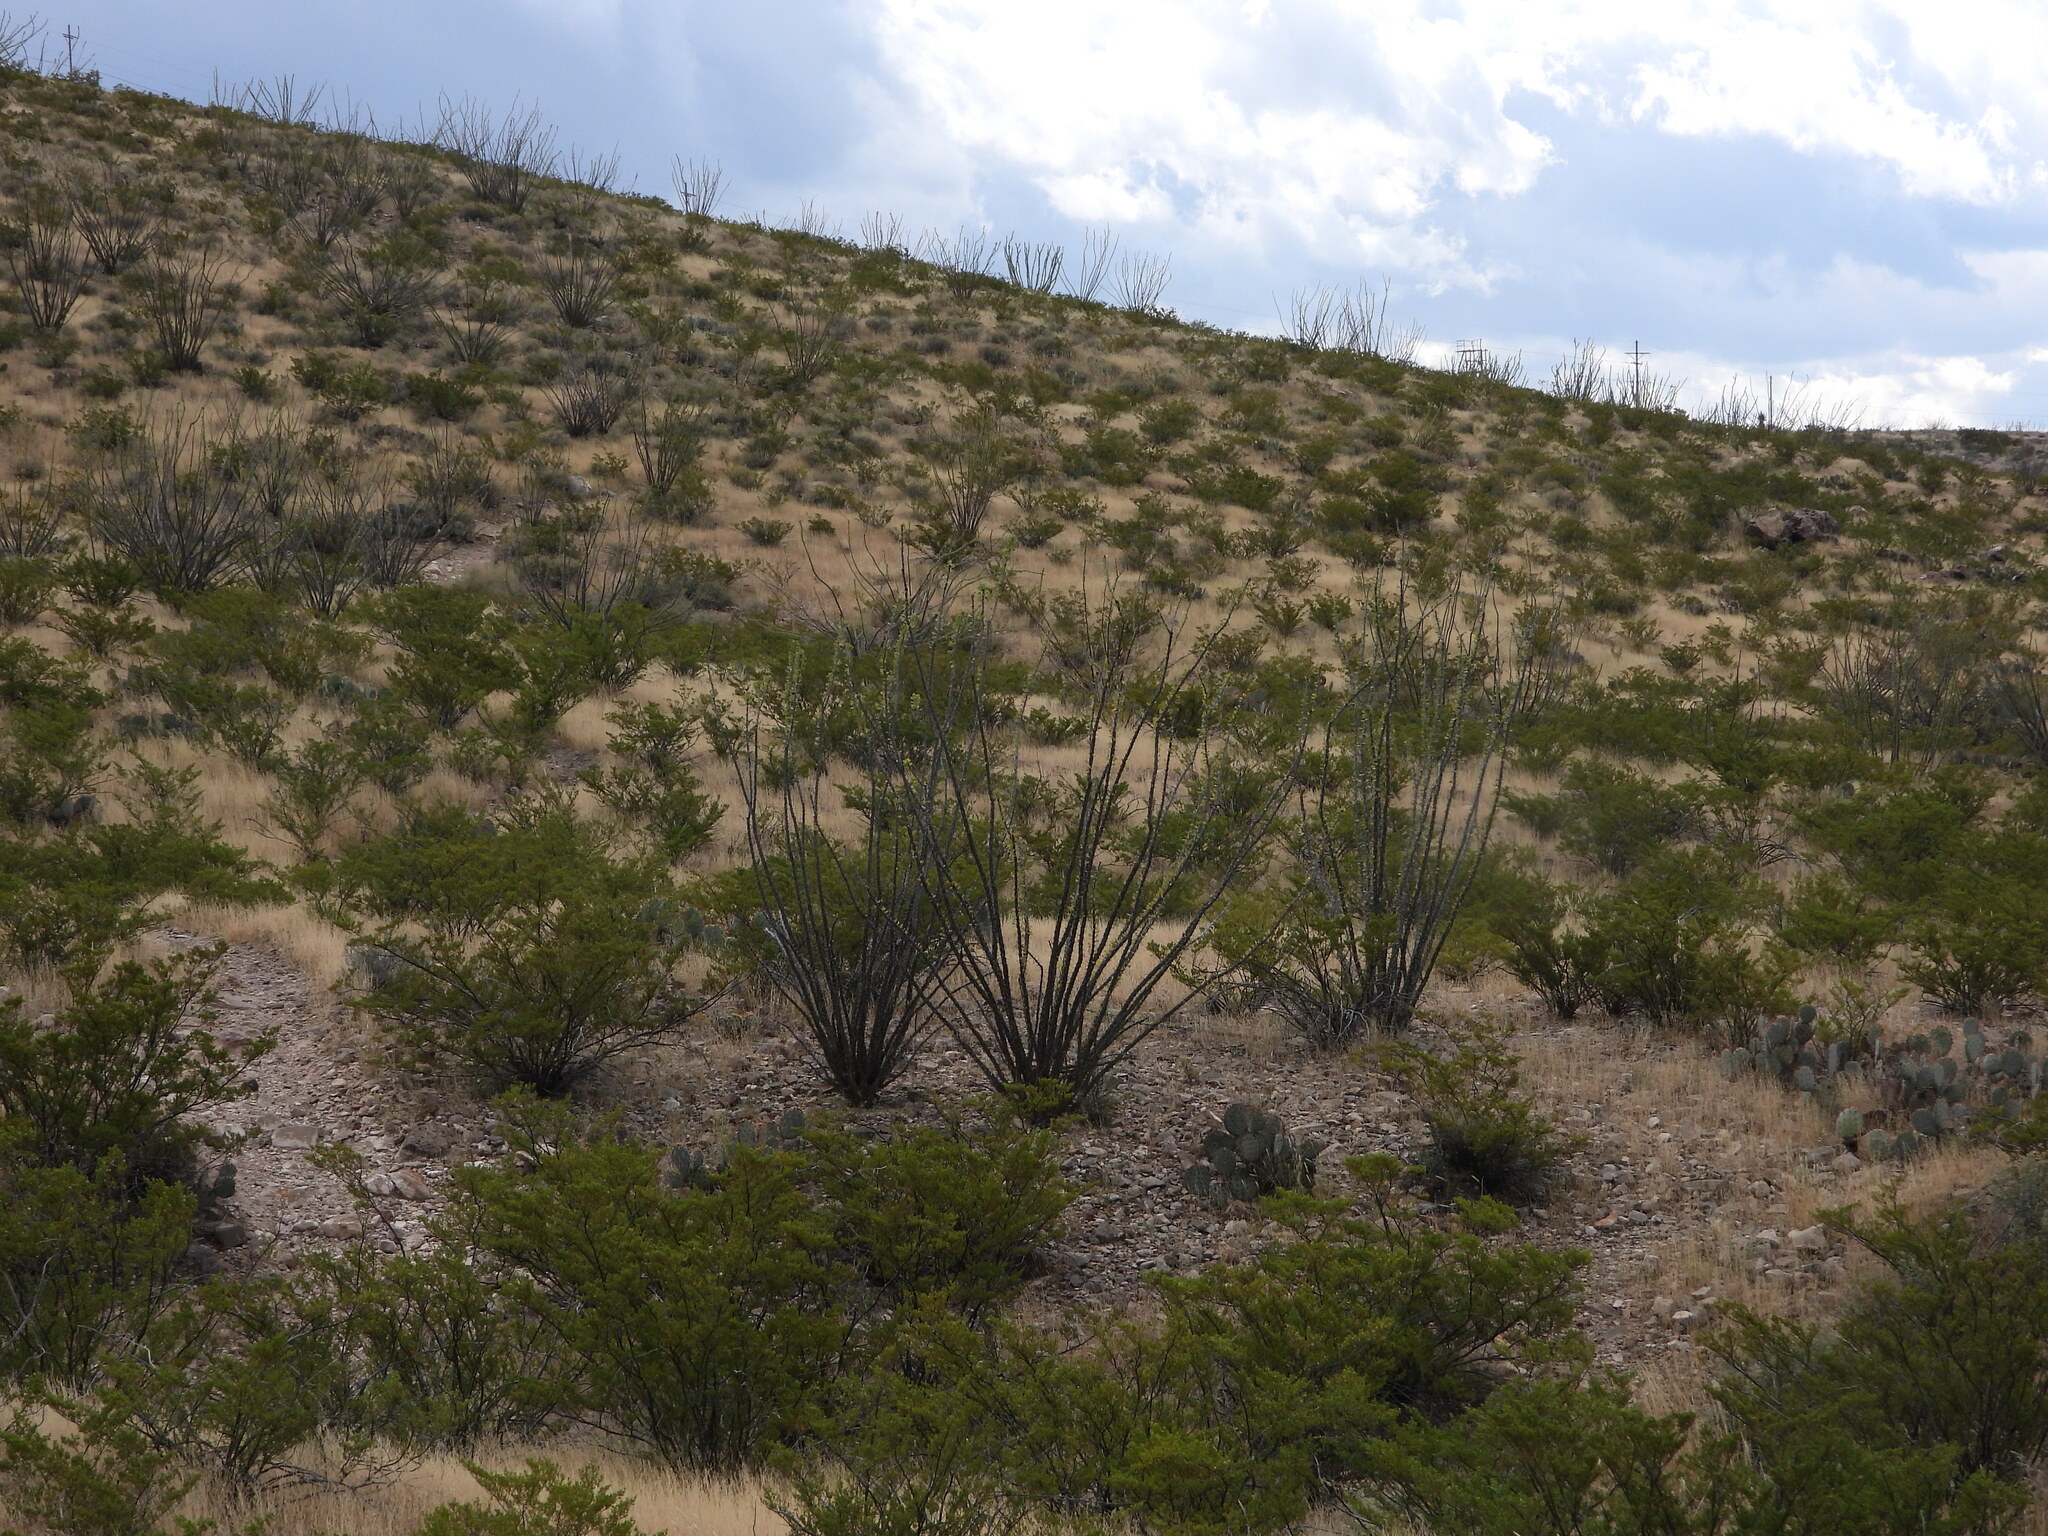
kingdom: Plantae
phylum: Tracheophyta
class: Magnoliopsida
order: Zygophyllales
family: Zygophyllaceae
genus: Larrea
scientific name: Larrea tridentata
